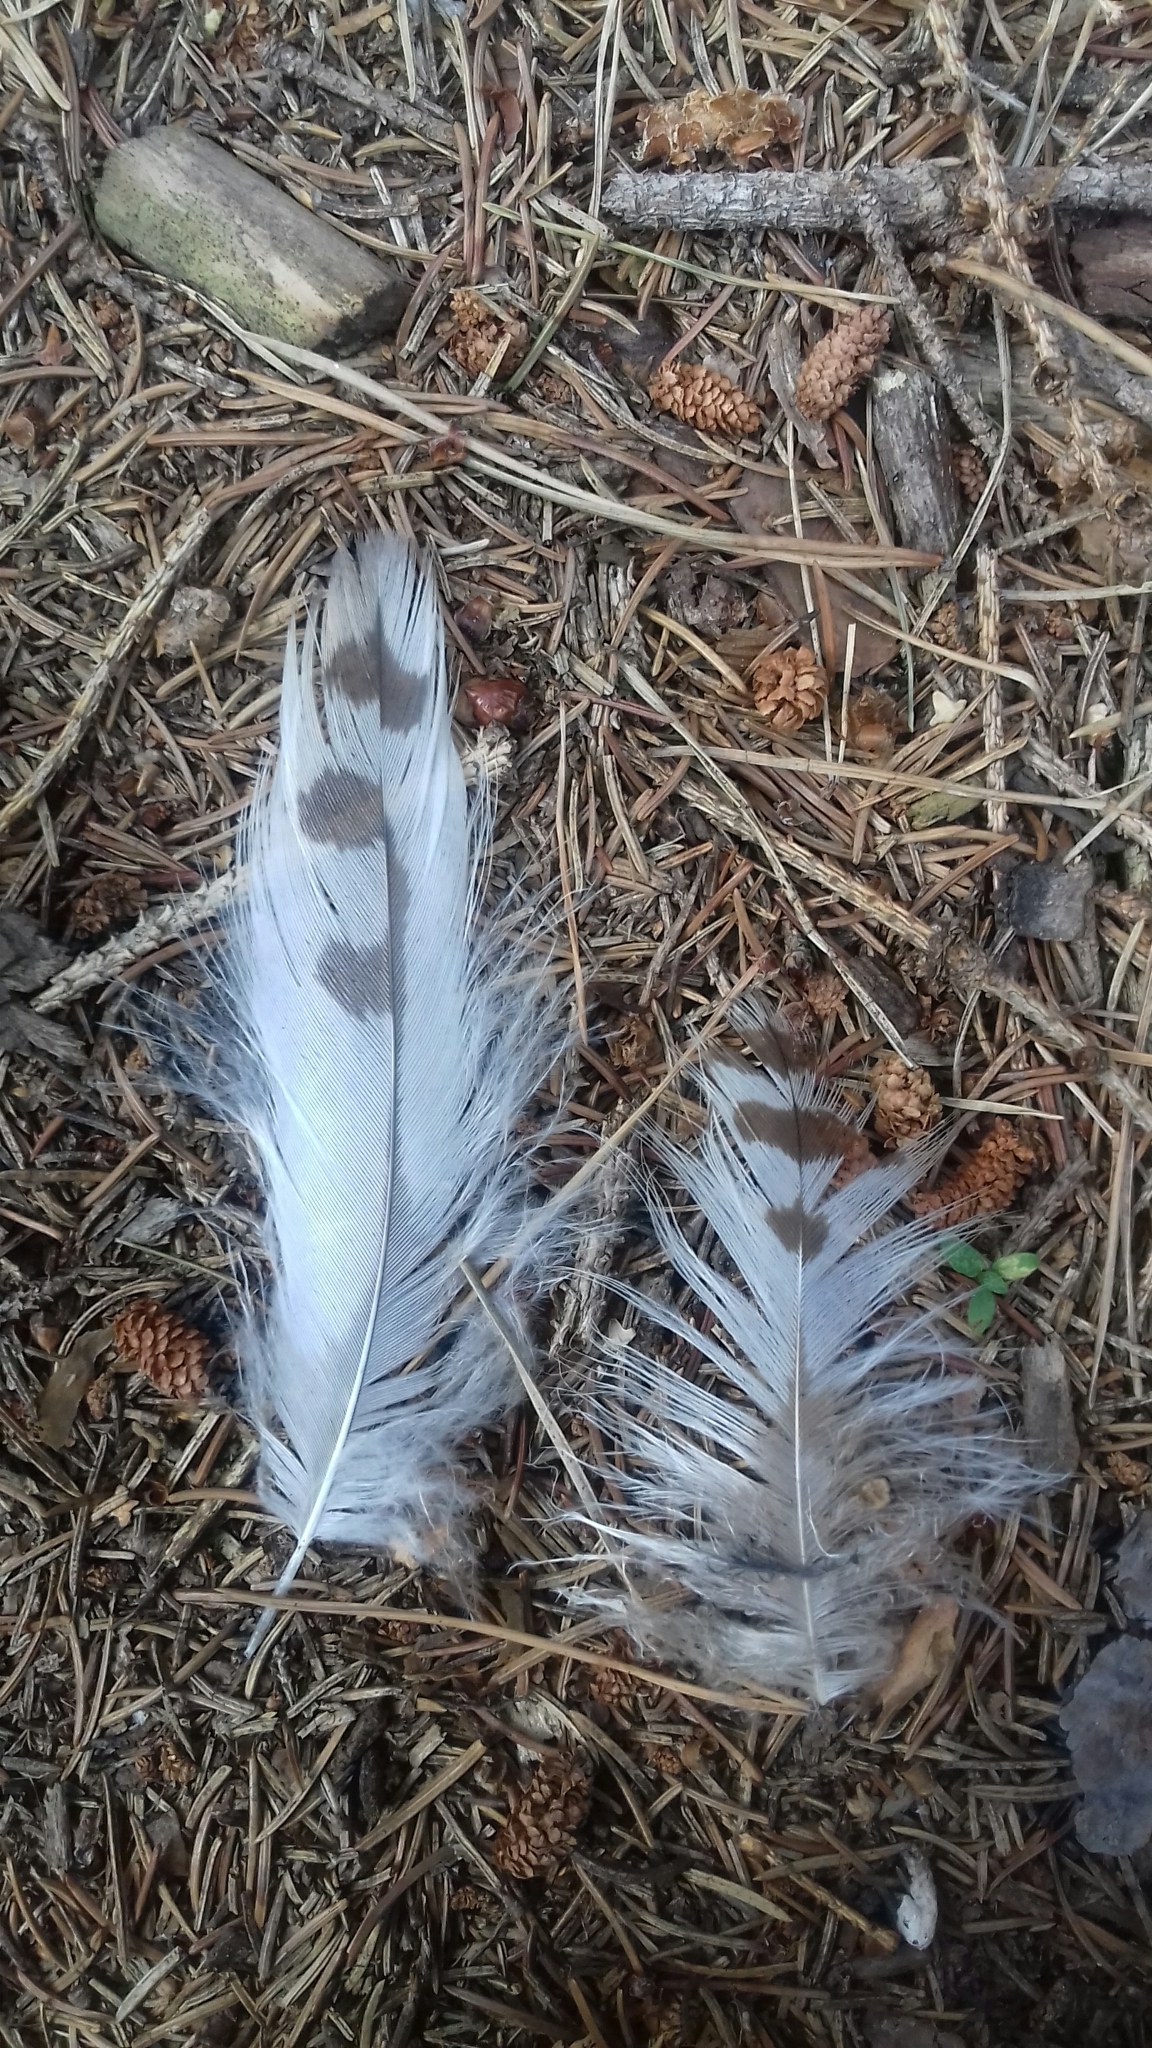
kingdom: Animalia
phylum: Chordata
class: Aves
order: Accipitriformes
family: Accipitridae
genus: Buteo
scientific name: Buteo buteo
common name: Common buzzard
